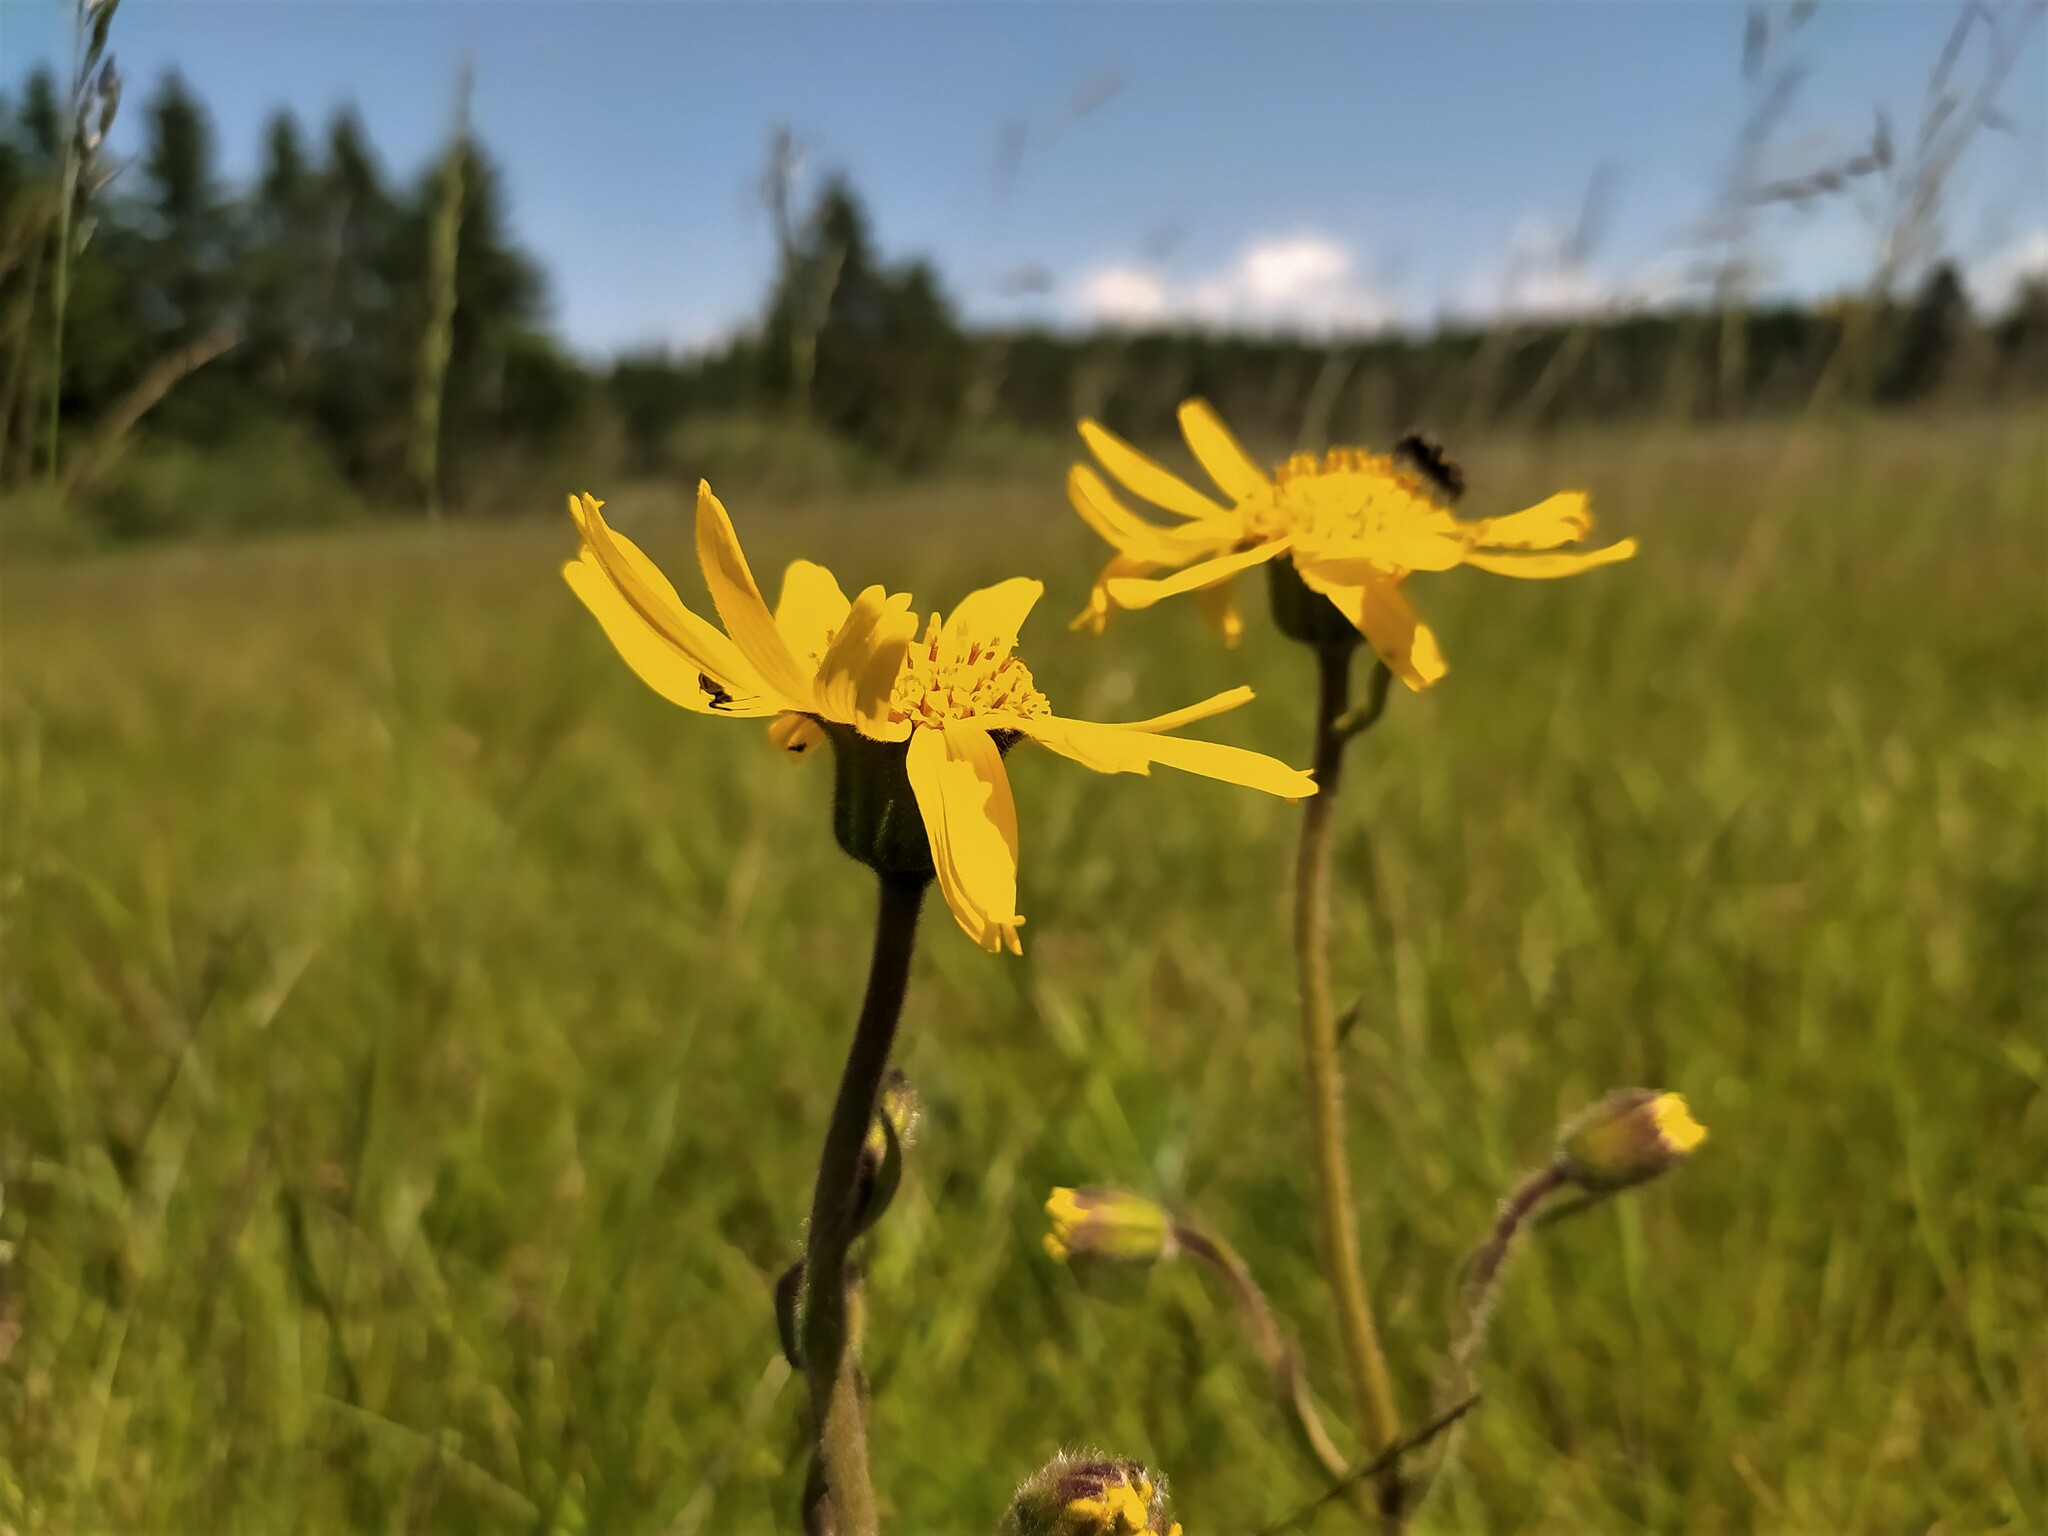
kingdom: Plantae
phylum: Tracheophyta
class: Magnoliopsida
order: Asterales
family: Asteraceae
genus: Arnica
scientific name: Arnica montana
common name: Leopard's bane
